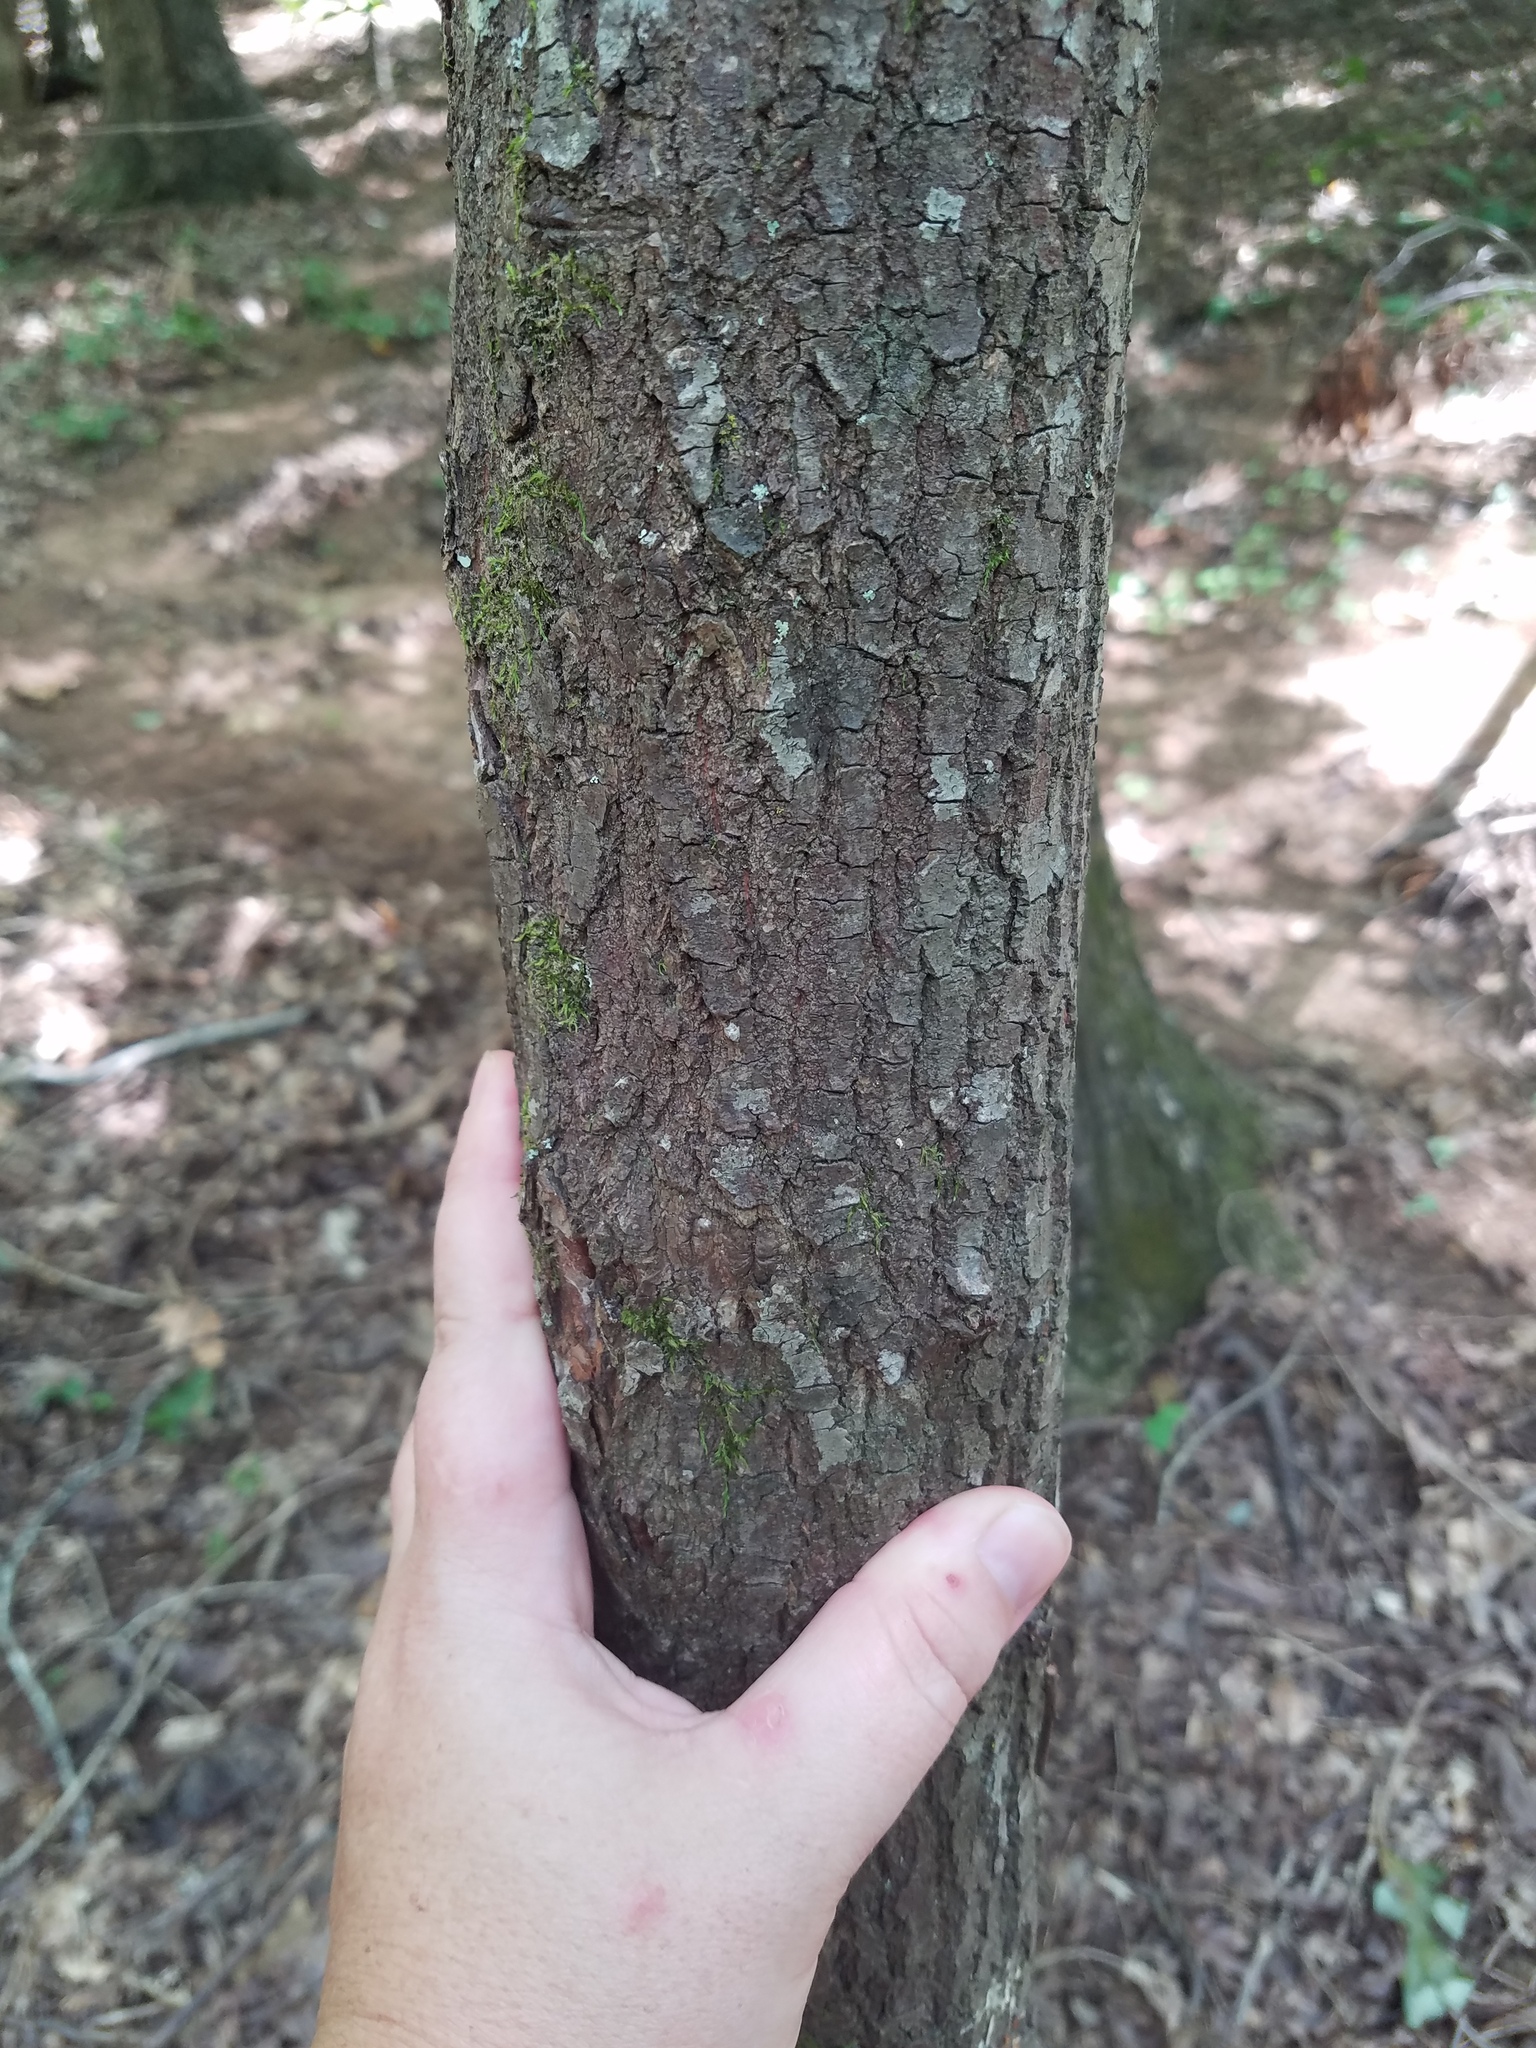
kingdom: Plantae
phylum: Tracheophyta
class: Magnoliopsida
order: Ericales
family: Ericaceae
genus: Oxydendrum
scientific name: Oxydendrum arboreum
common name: Sourwood
